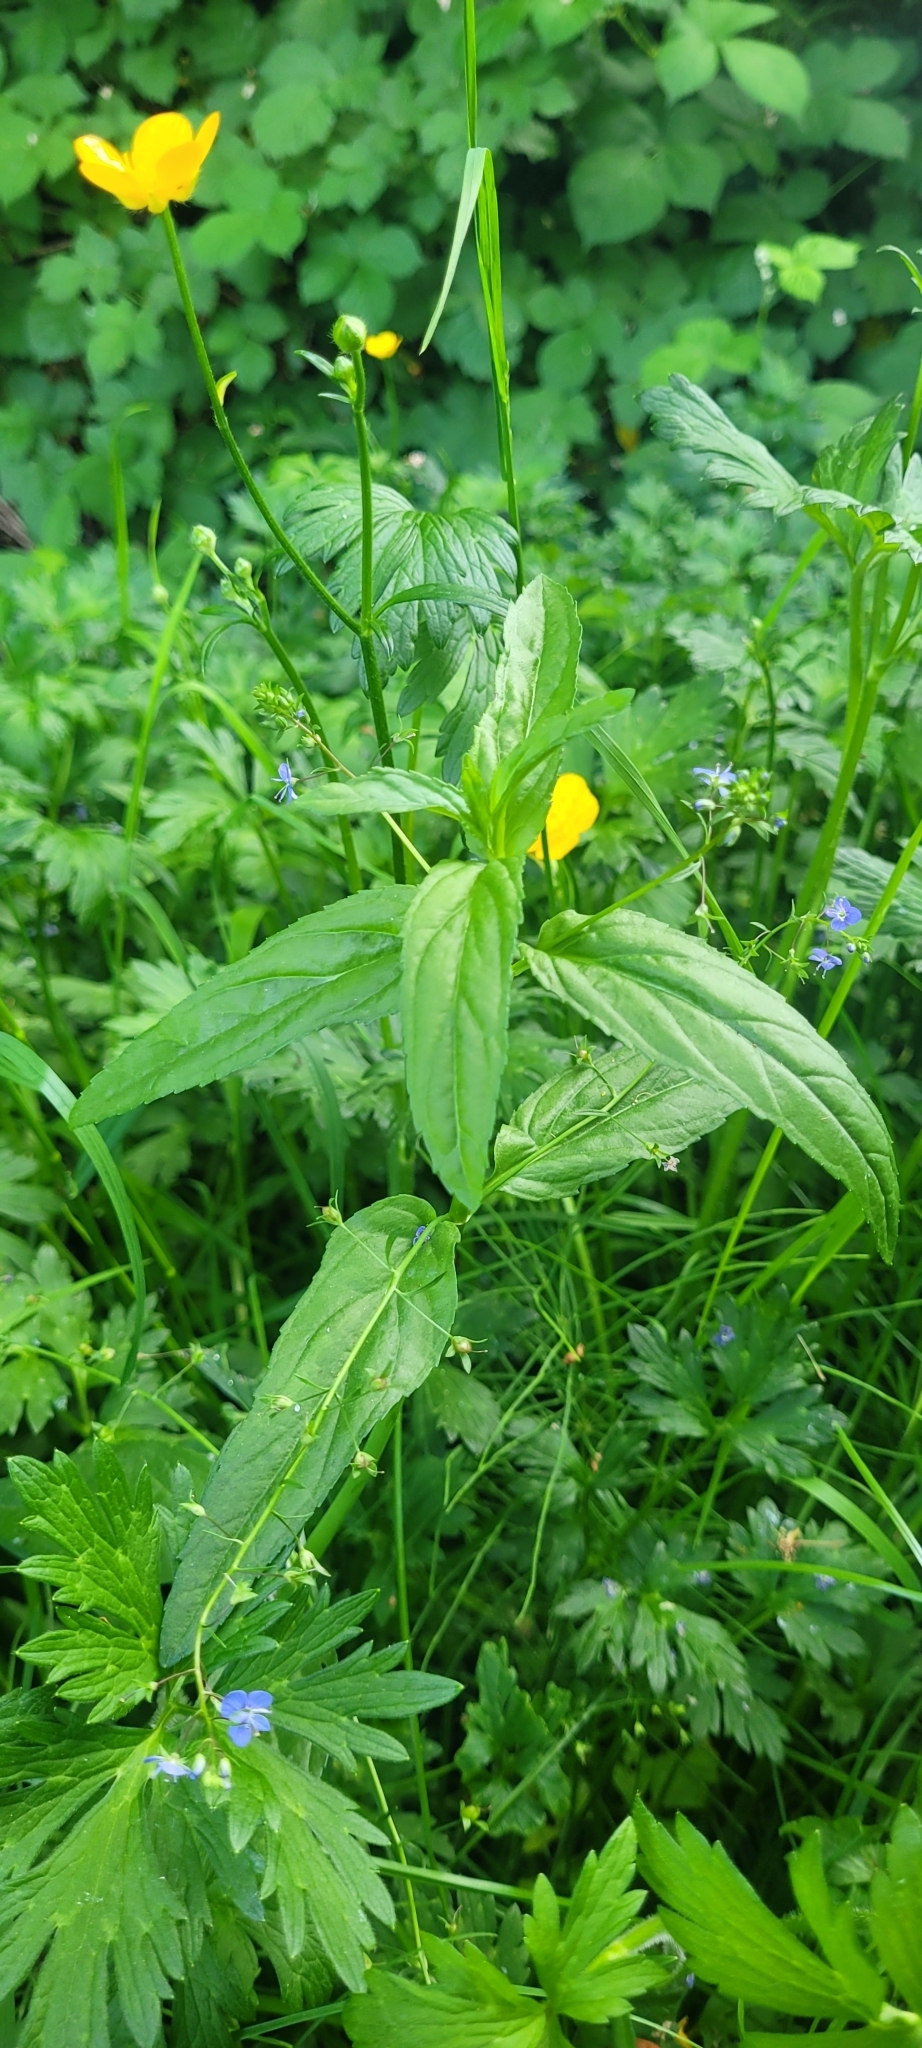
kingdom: Plantae
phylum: Tracheophyta
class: Magnoliopsida
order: Lamiales
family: Plantaginaceae
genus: Veronica
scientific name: Veronica americana
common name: American brooklime
